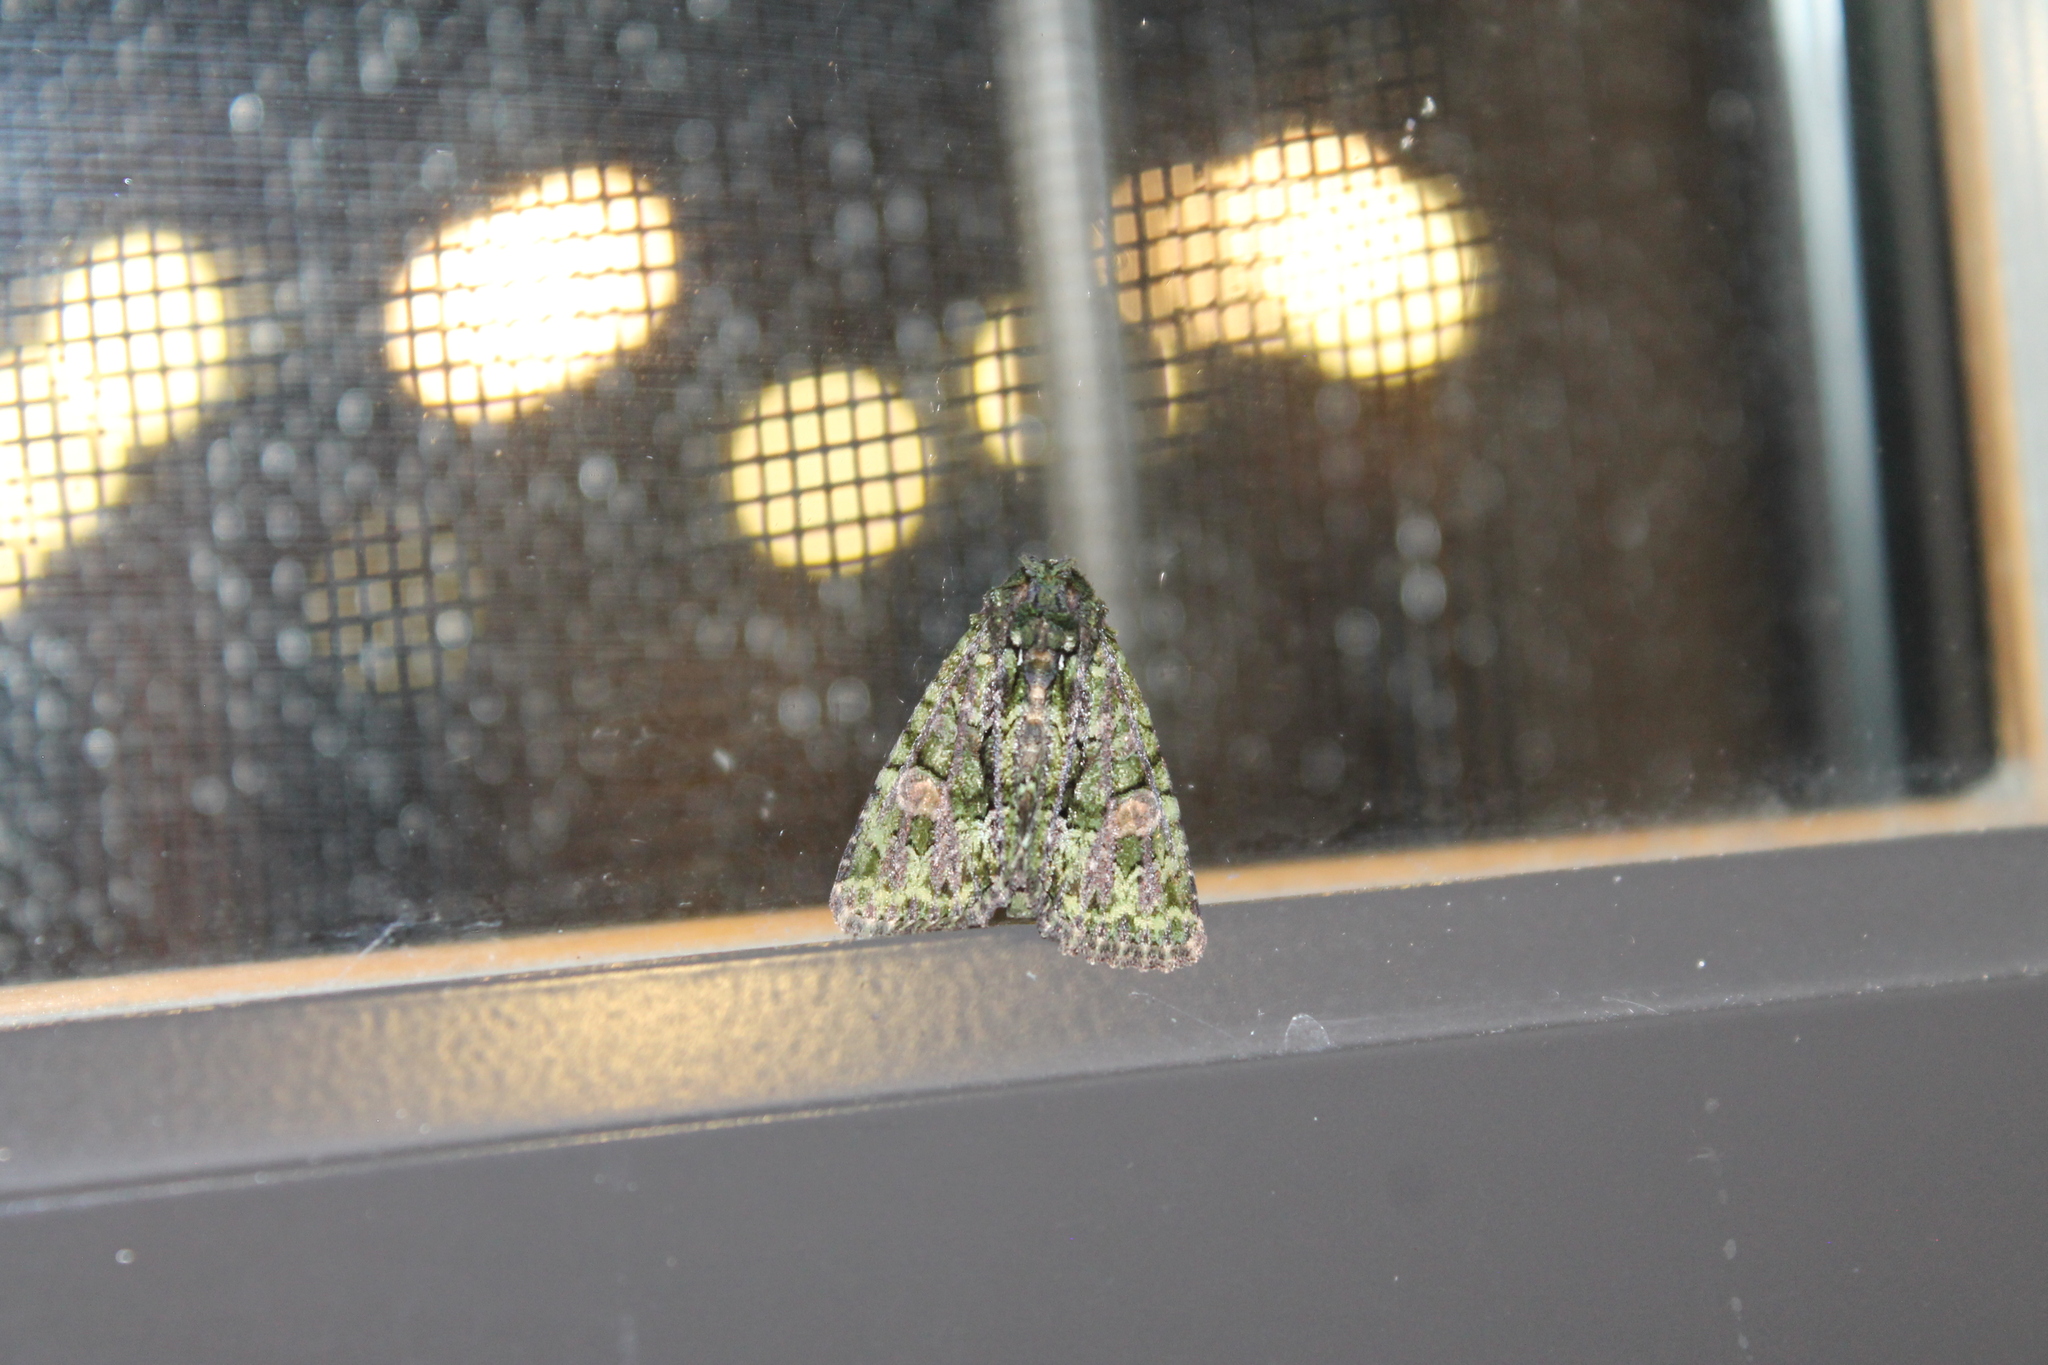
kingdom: Animalia
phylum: Arthropoda
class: Insecta
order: Lepidoptera
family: Noctuidae
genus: Phosphila
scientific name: Phosphila miselioides
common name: Spotted phosphila moth
